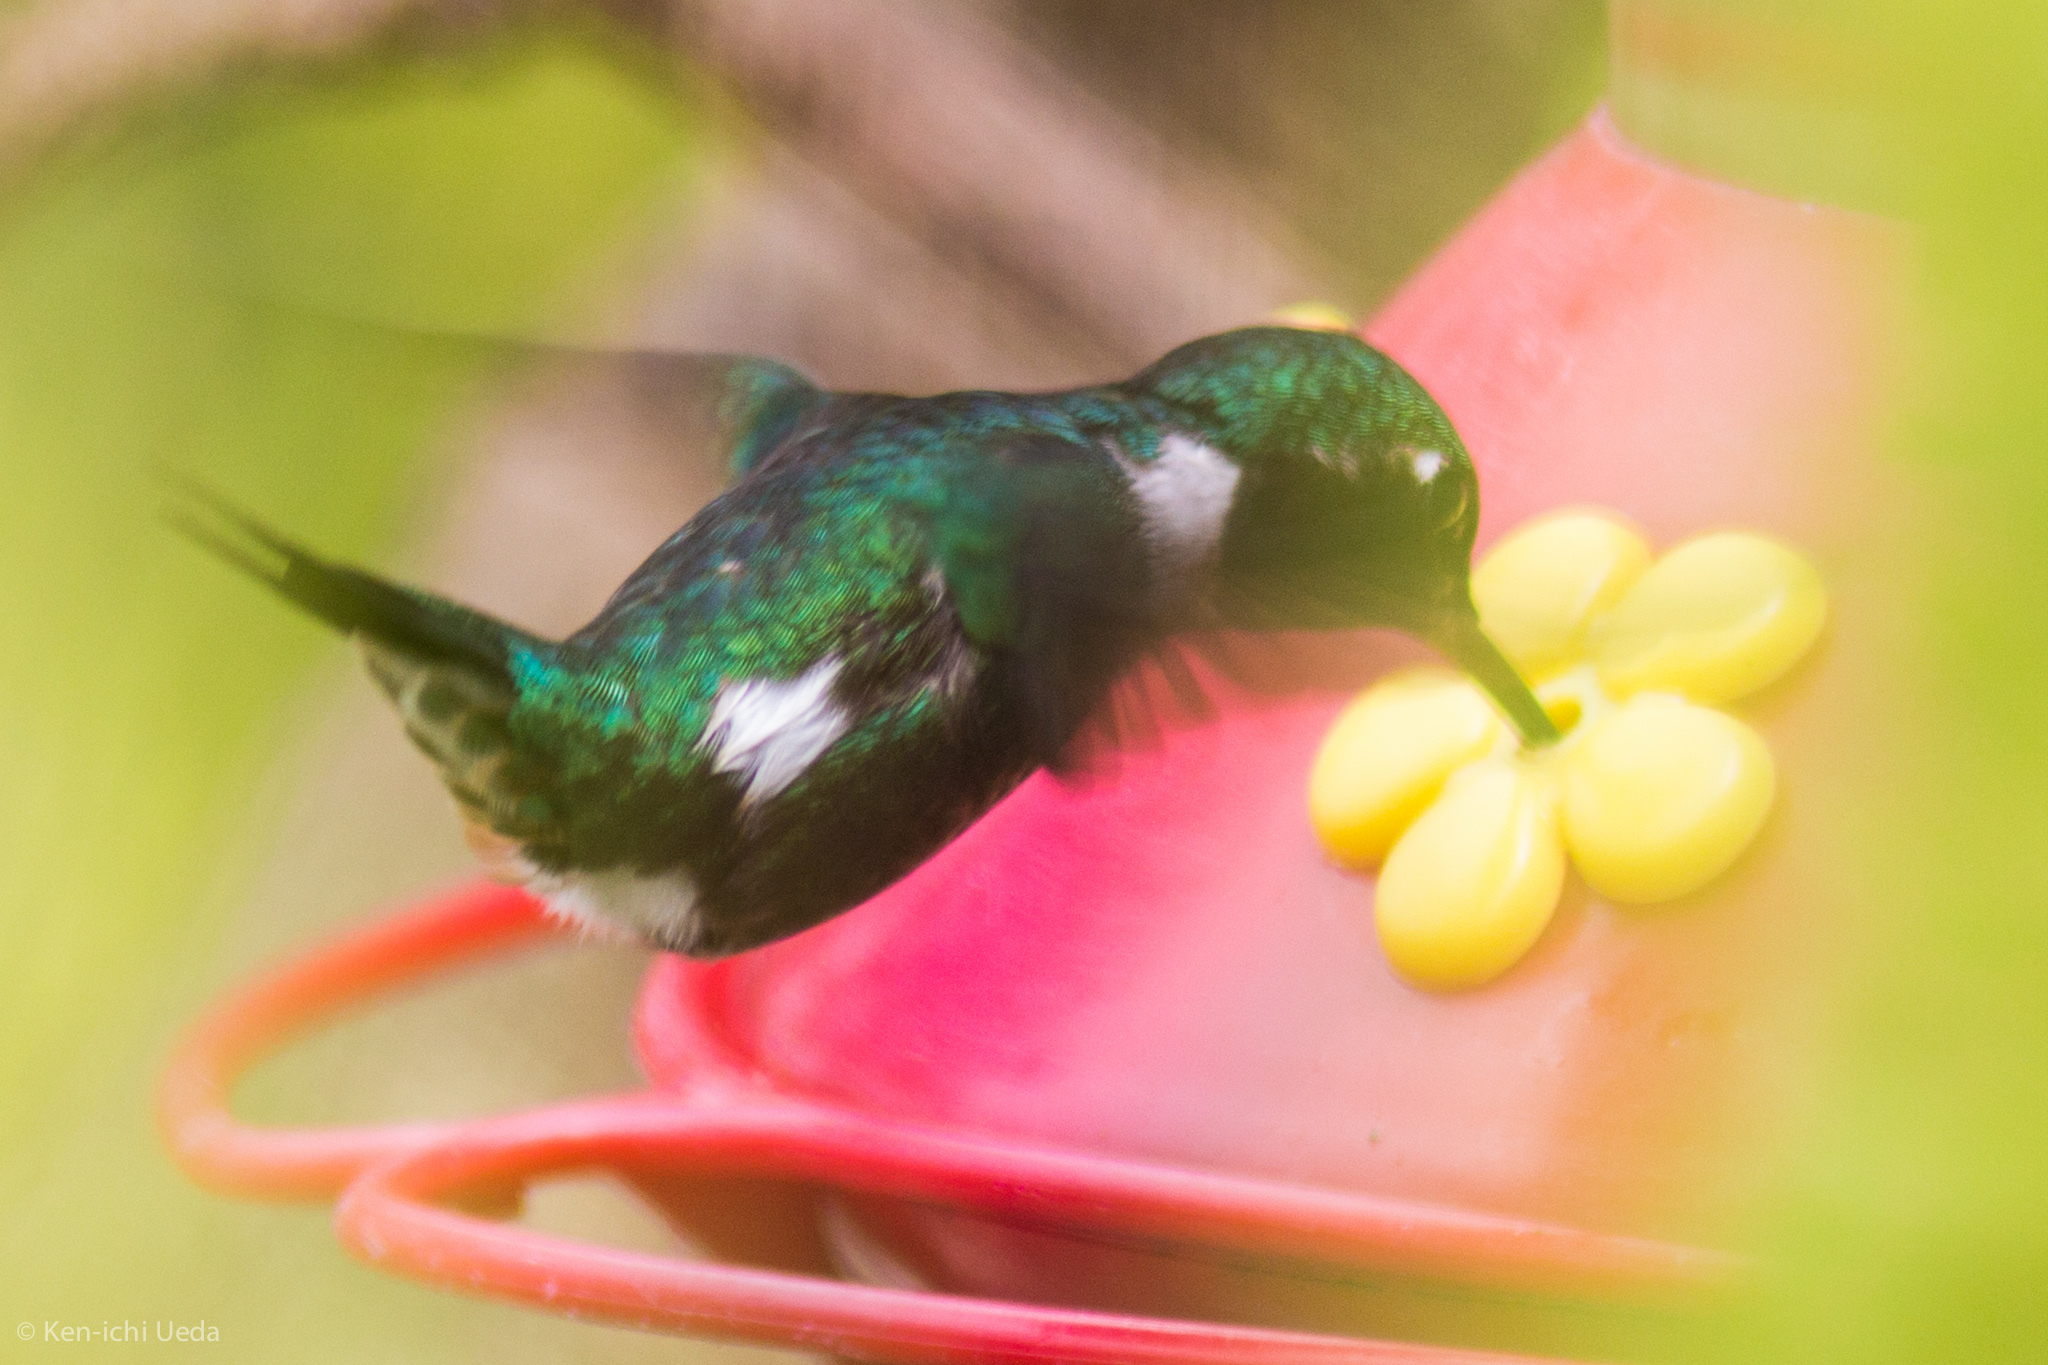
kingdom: Animalia
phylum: Chordata
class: Aves
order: Apodiformes
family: Trochilidae
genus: Chaetocercus
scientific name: Chaetocercus mulsant
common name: White-bellied woodstar
